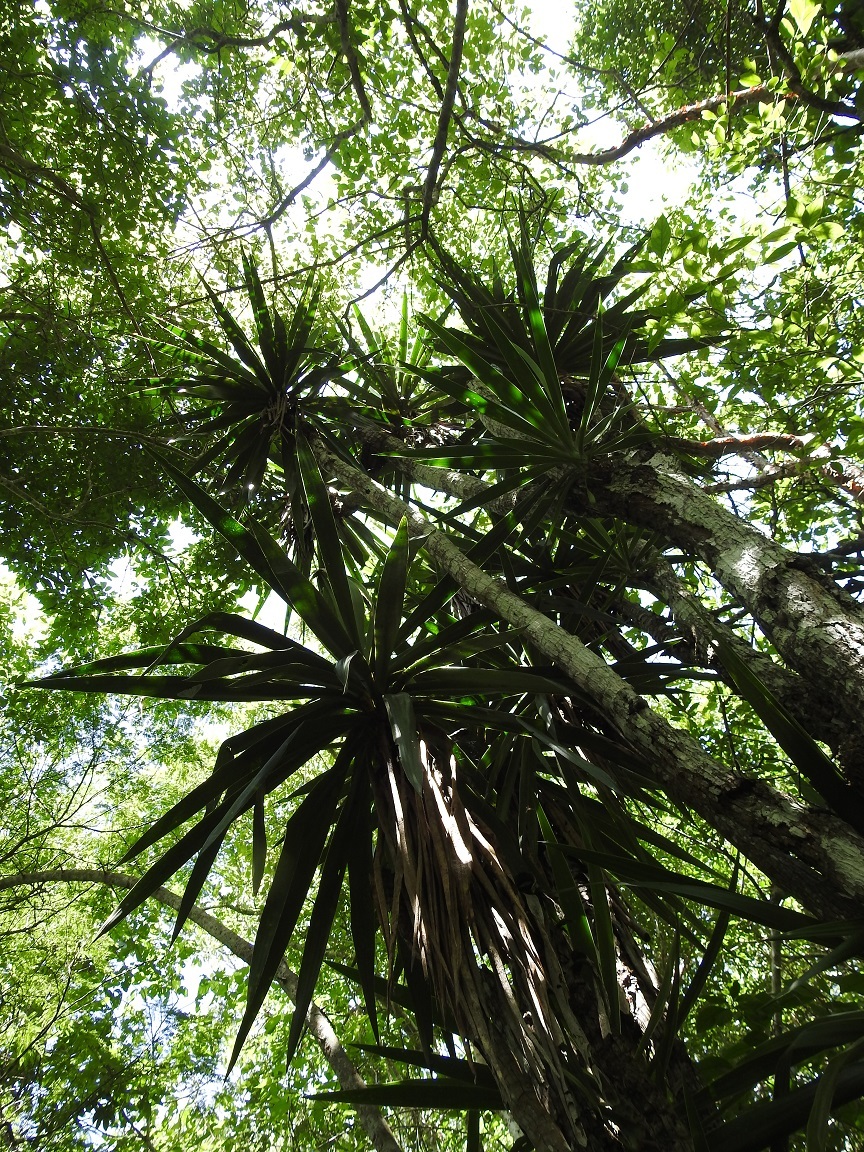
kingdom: Plantae
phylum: Tracheophyta
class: Liliopsida
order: Asparagales
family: Asparagaceae
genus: Yucca
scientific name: Yucca gigantea
